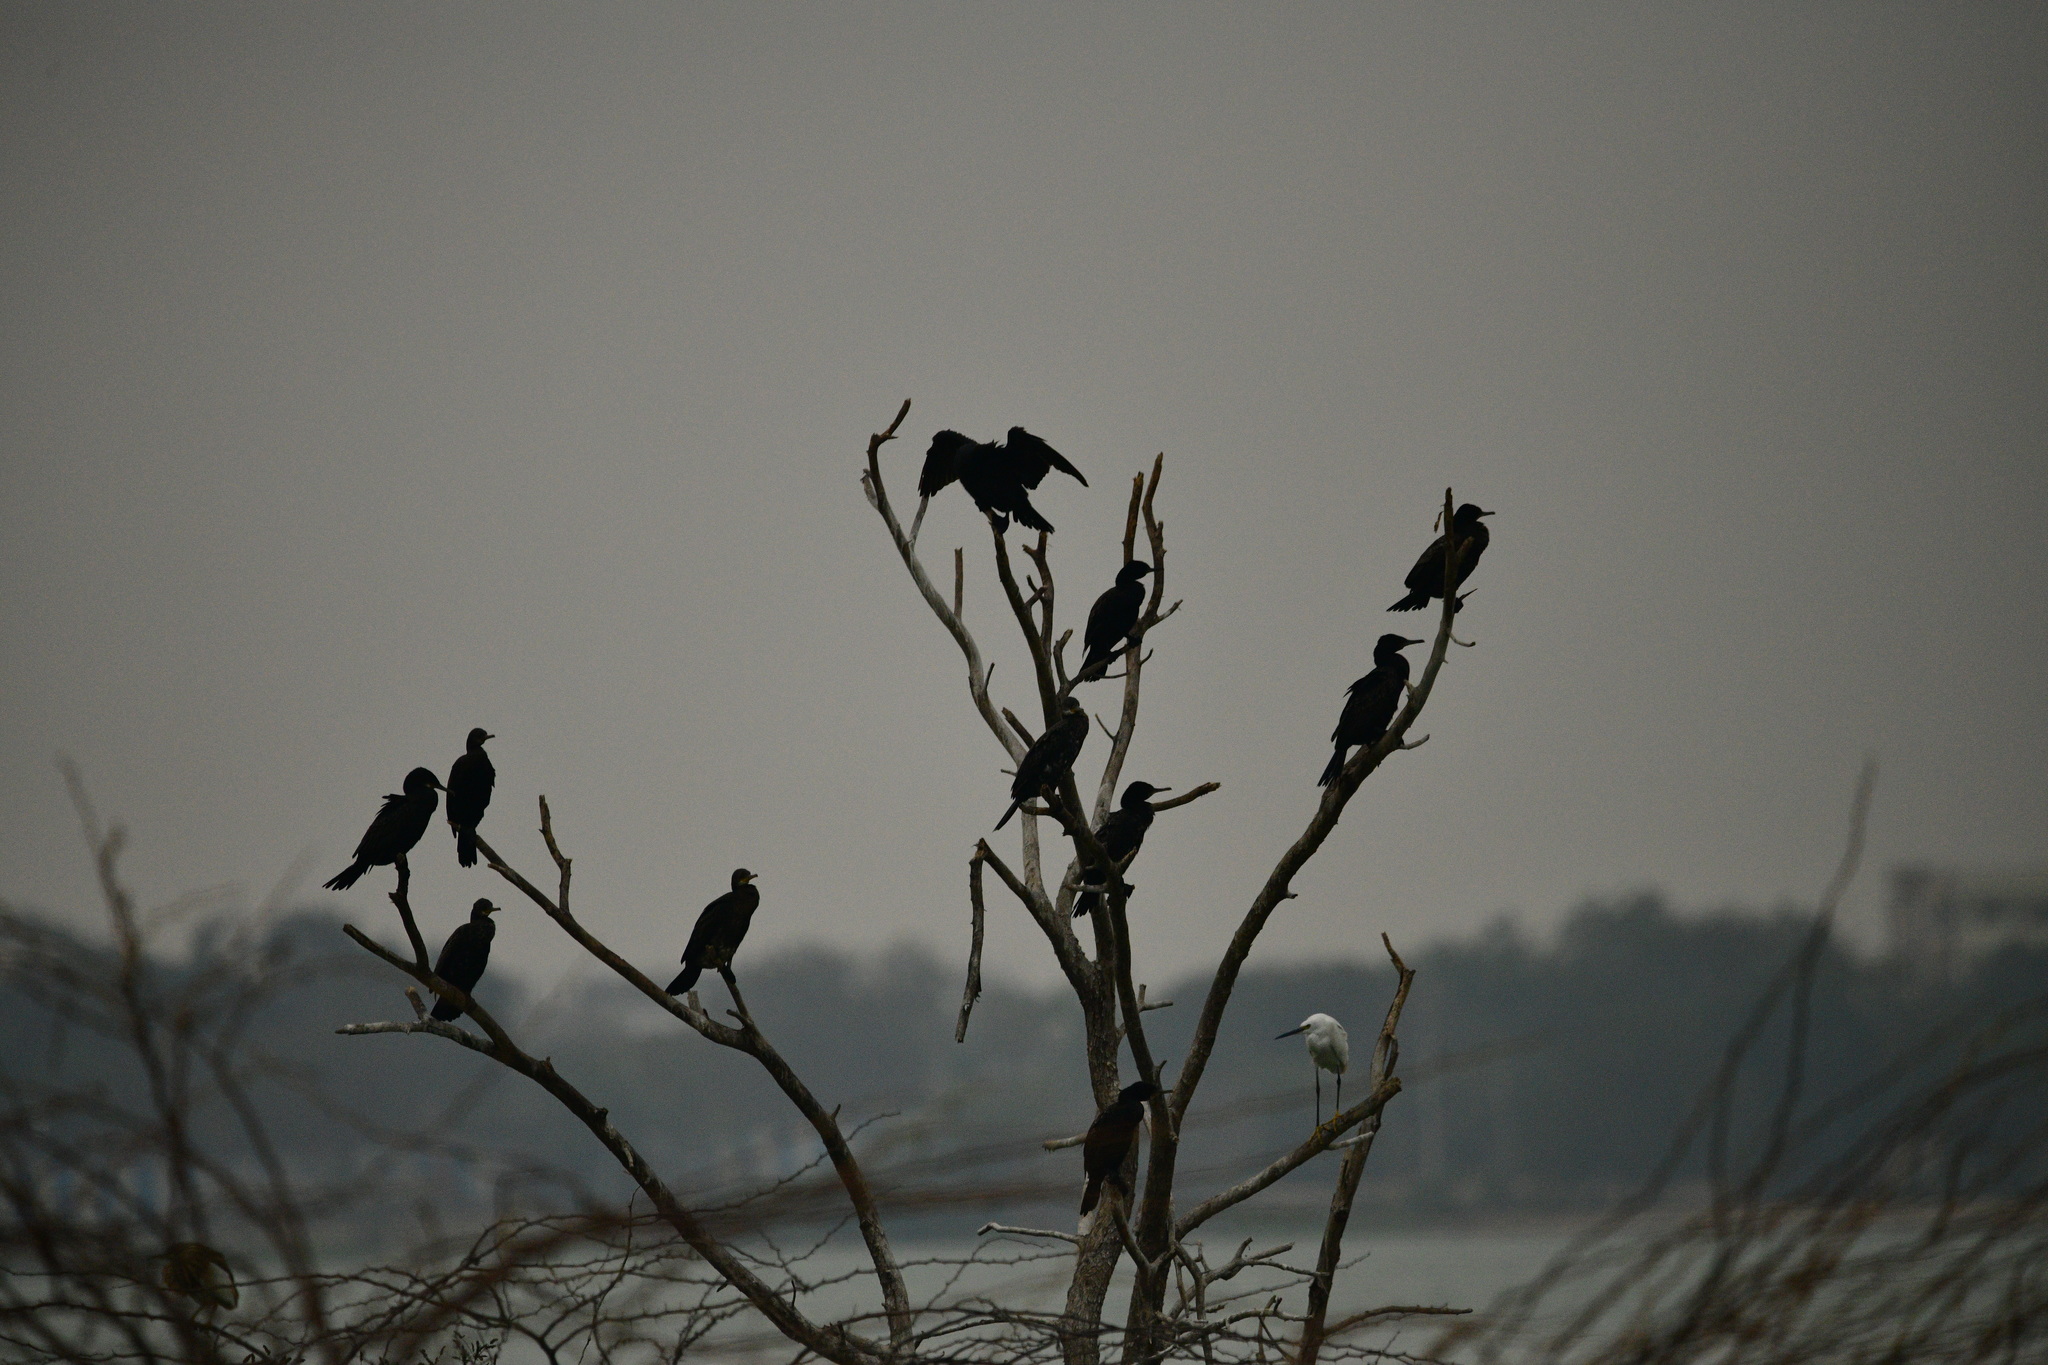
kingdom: Animalia
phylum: Chordata
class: Aves
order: Suliformes
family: Phalacrocoracidae
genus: Phalacrocorax
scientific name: Phalacrocorax fuscicollis
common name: Indian cormorant
